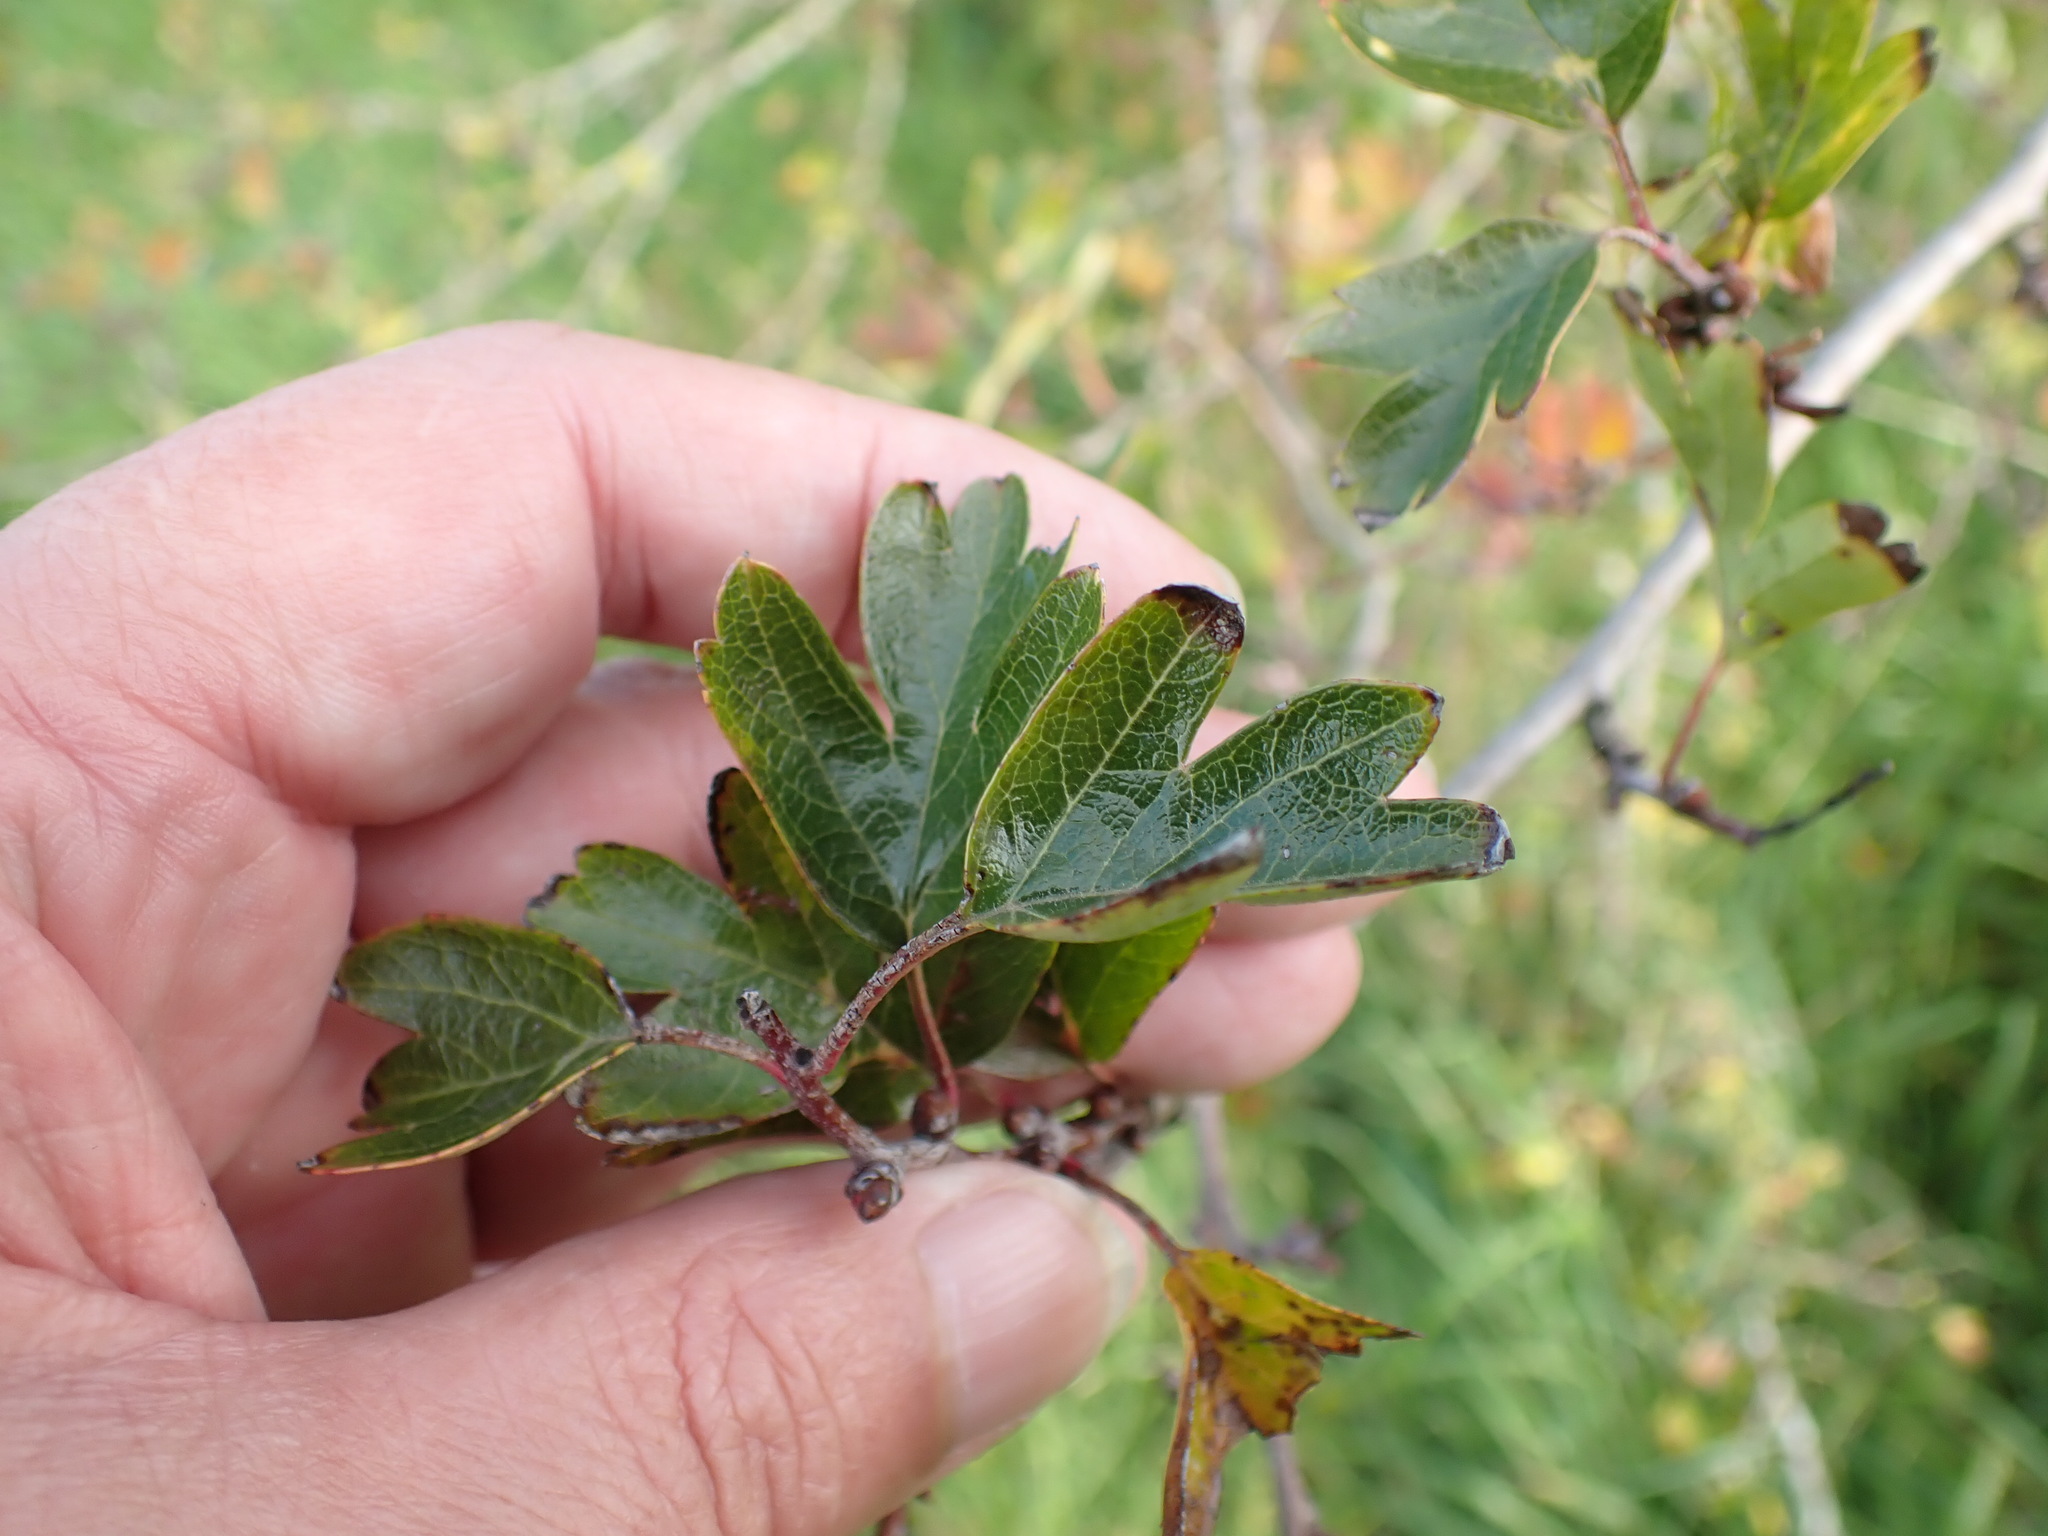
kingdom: Plantae
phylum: Tracheophyta
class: Magnoliopsida
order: Rosales
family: Rosaceae
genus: Crataegus
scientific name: Crataegus monogyna
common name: Hawthorn
